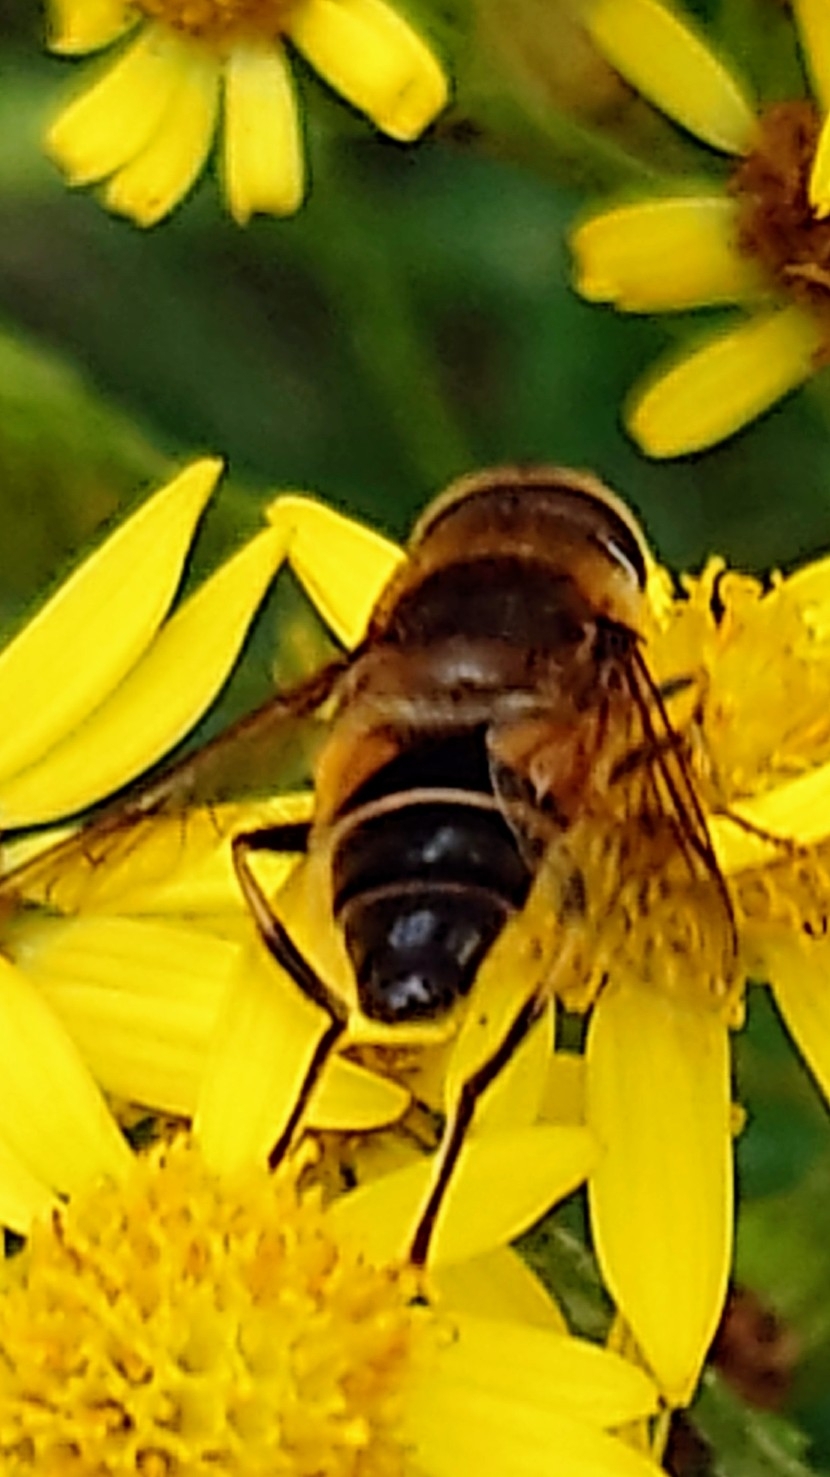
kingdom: Animalia
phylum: Arthropoda
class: Insecta
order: Diptera
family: Syrphidae
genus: Eristalis
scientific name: Eristalis pertinax
